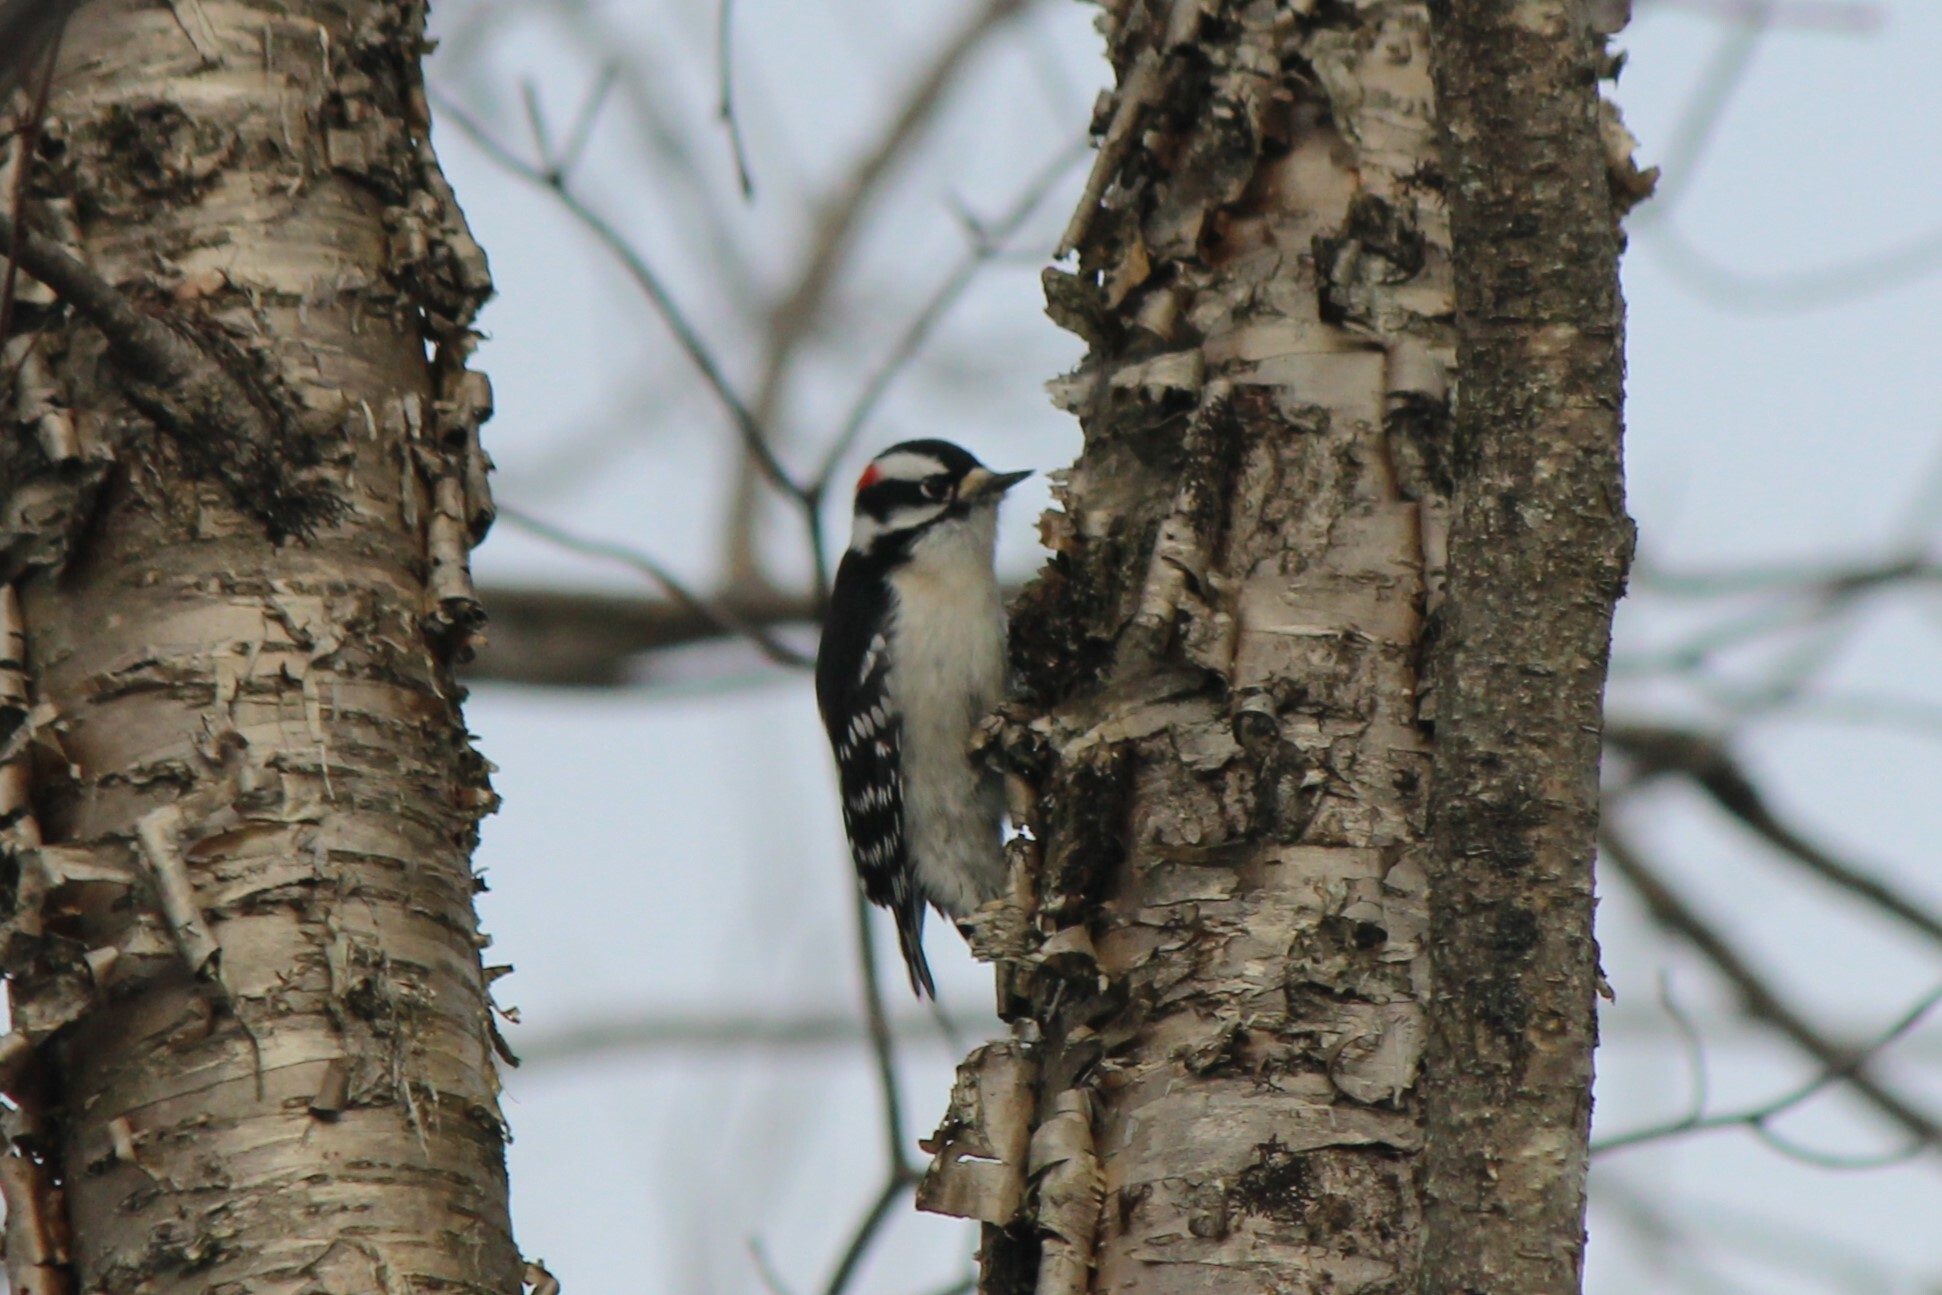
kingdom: Animalia
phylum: Chordata
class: Aves
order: Piciformes
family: Picidae
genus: Dryobates
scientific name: Dryobates pubescens
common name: Downy woodpecker
